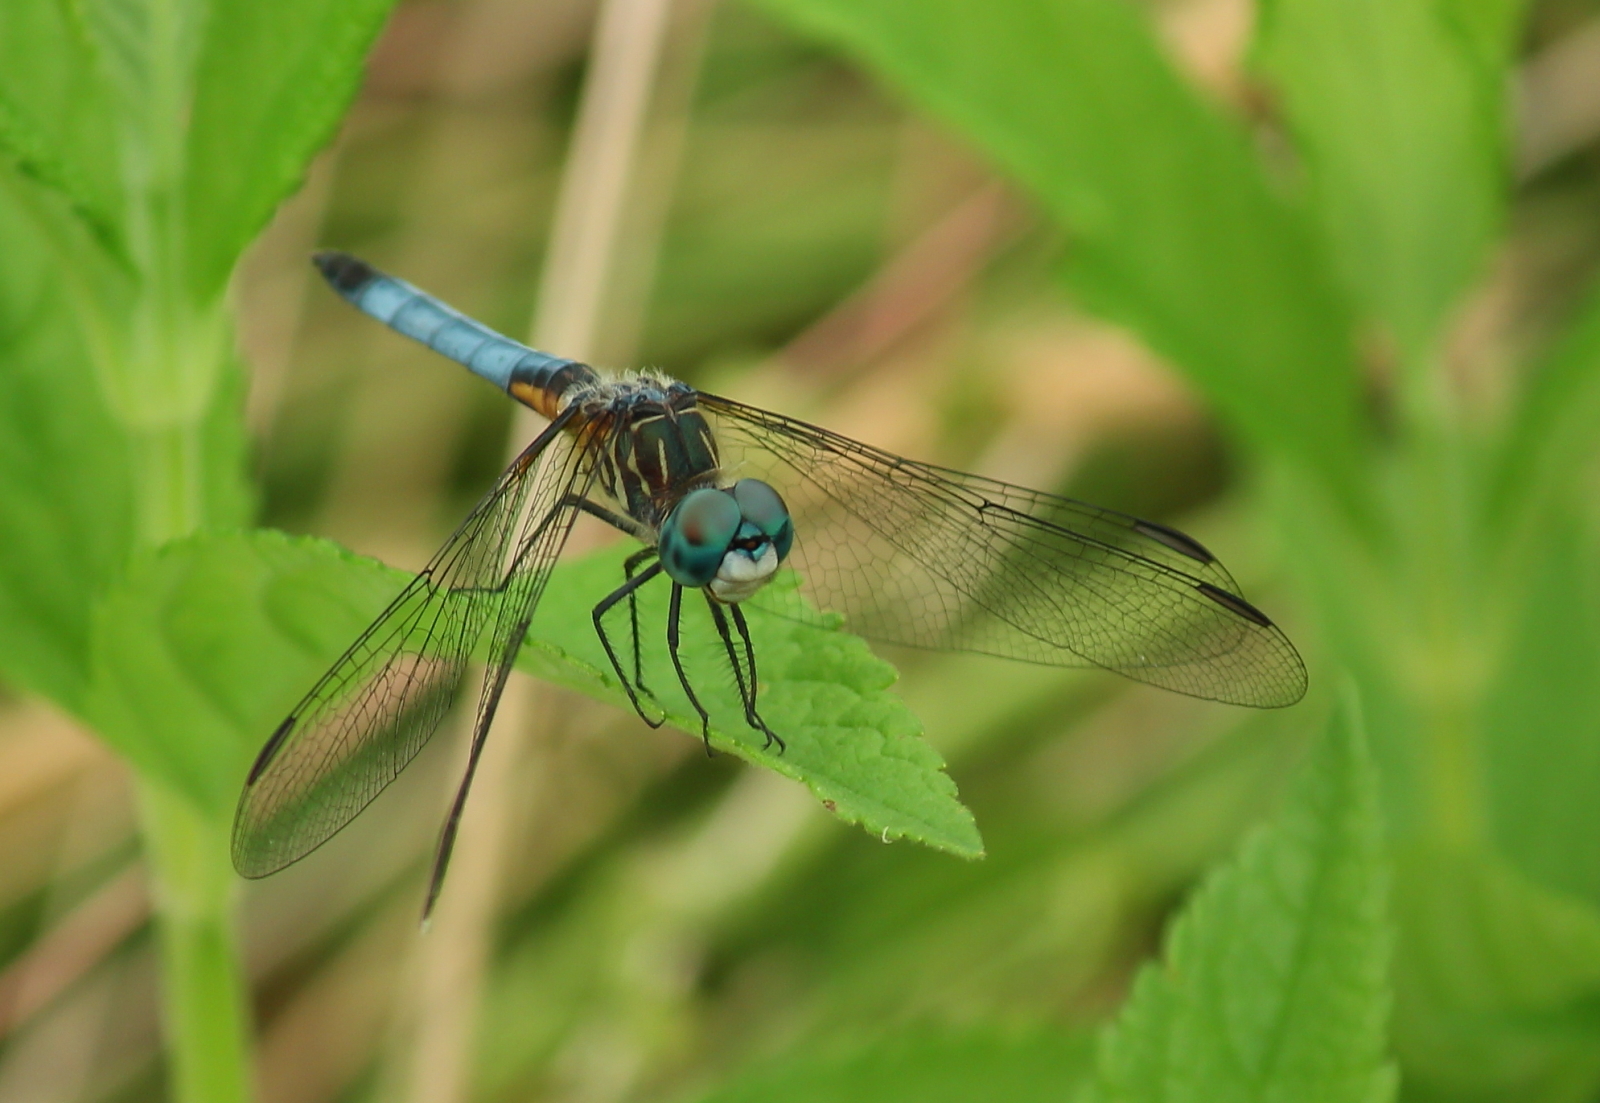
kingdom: Animalia
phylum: Arthropoda
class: Insecta
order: Odonata
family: Libellulidae
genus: Pachydiplax
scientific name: Pachydiplax longipennis
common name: Blue dasher
